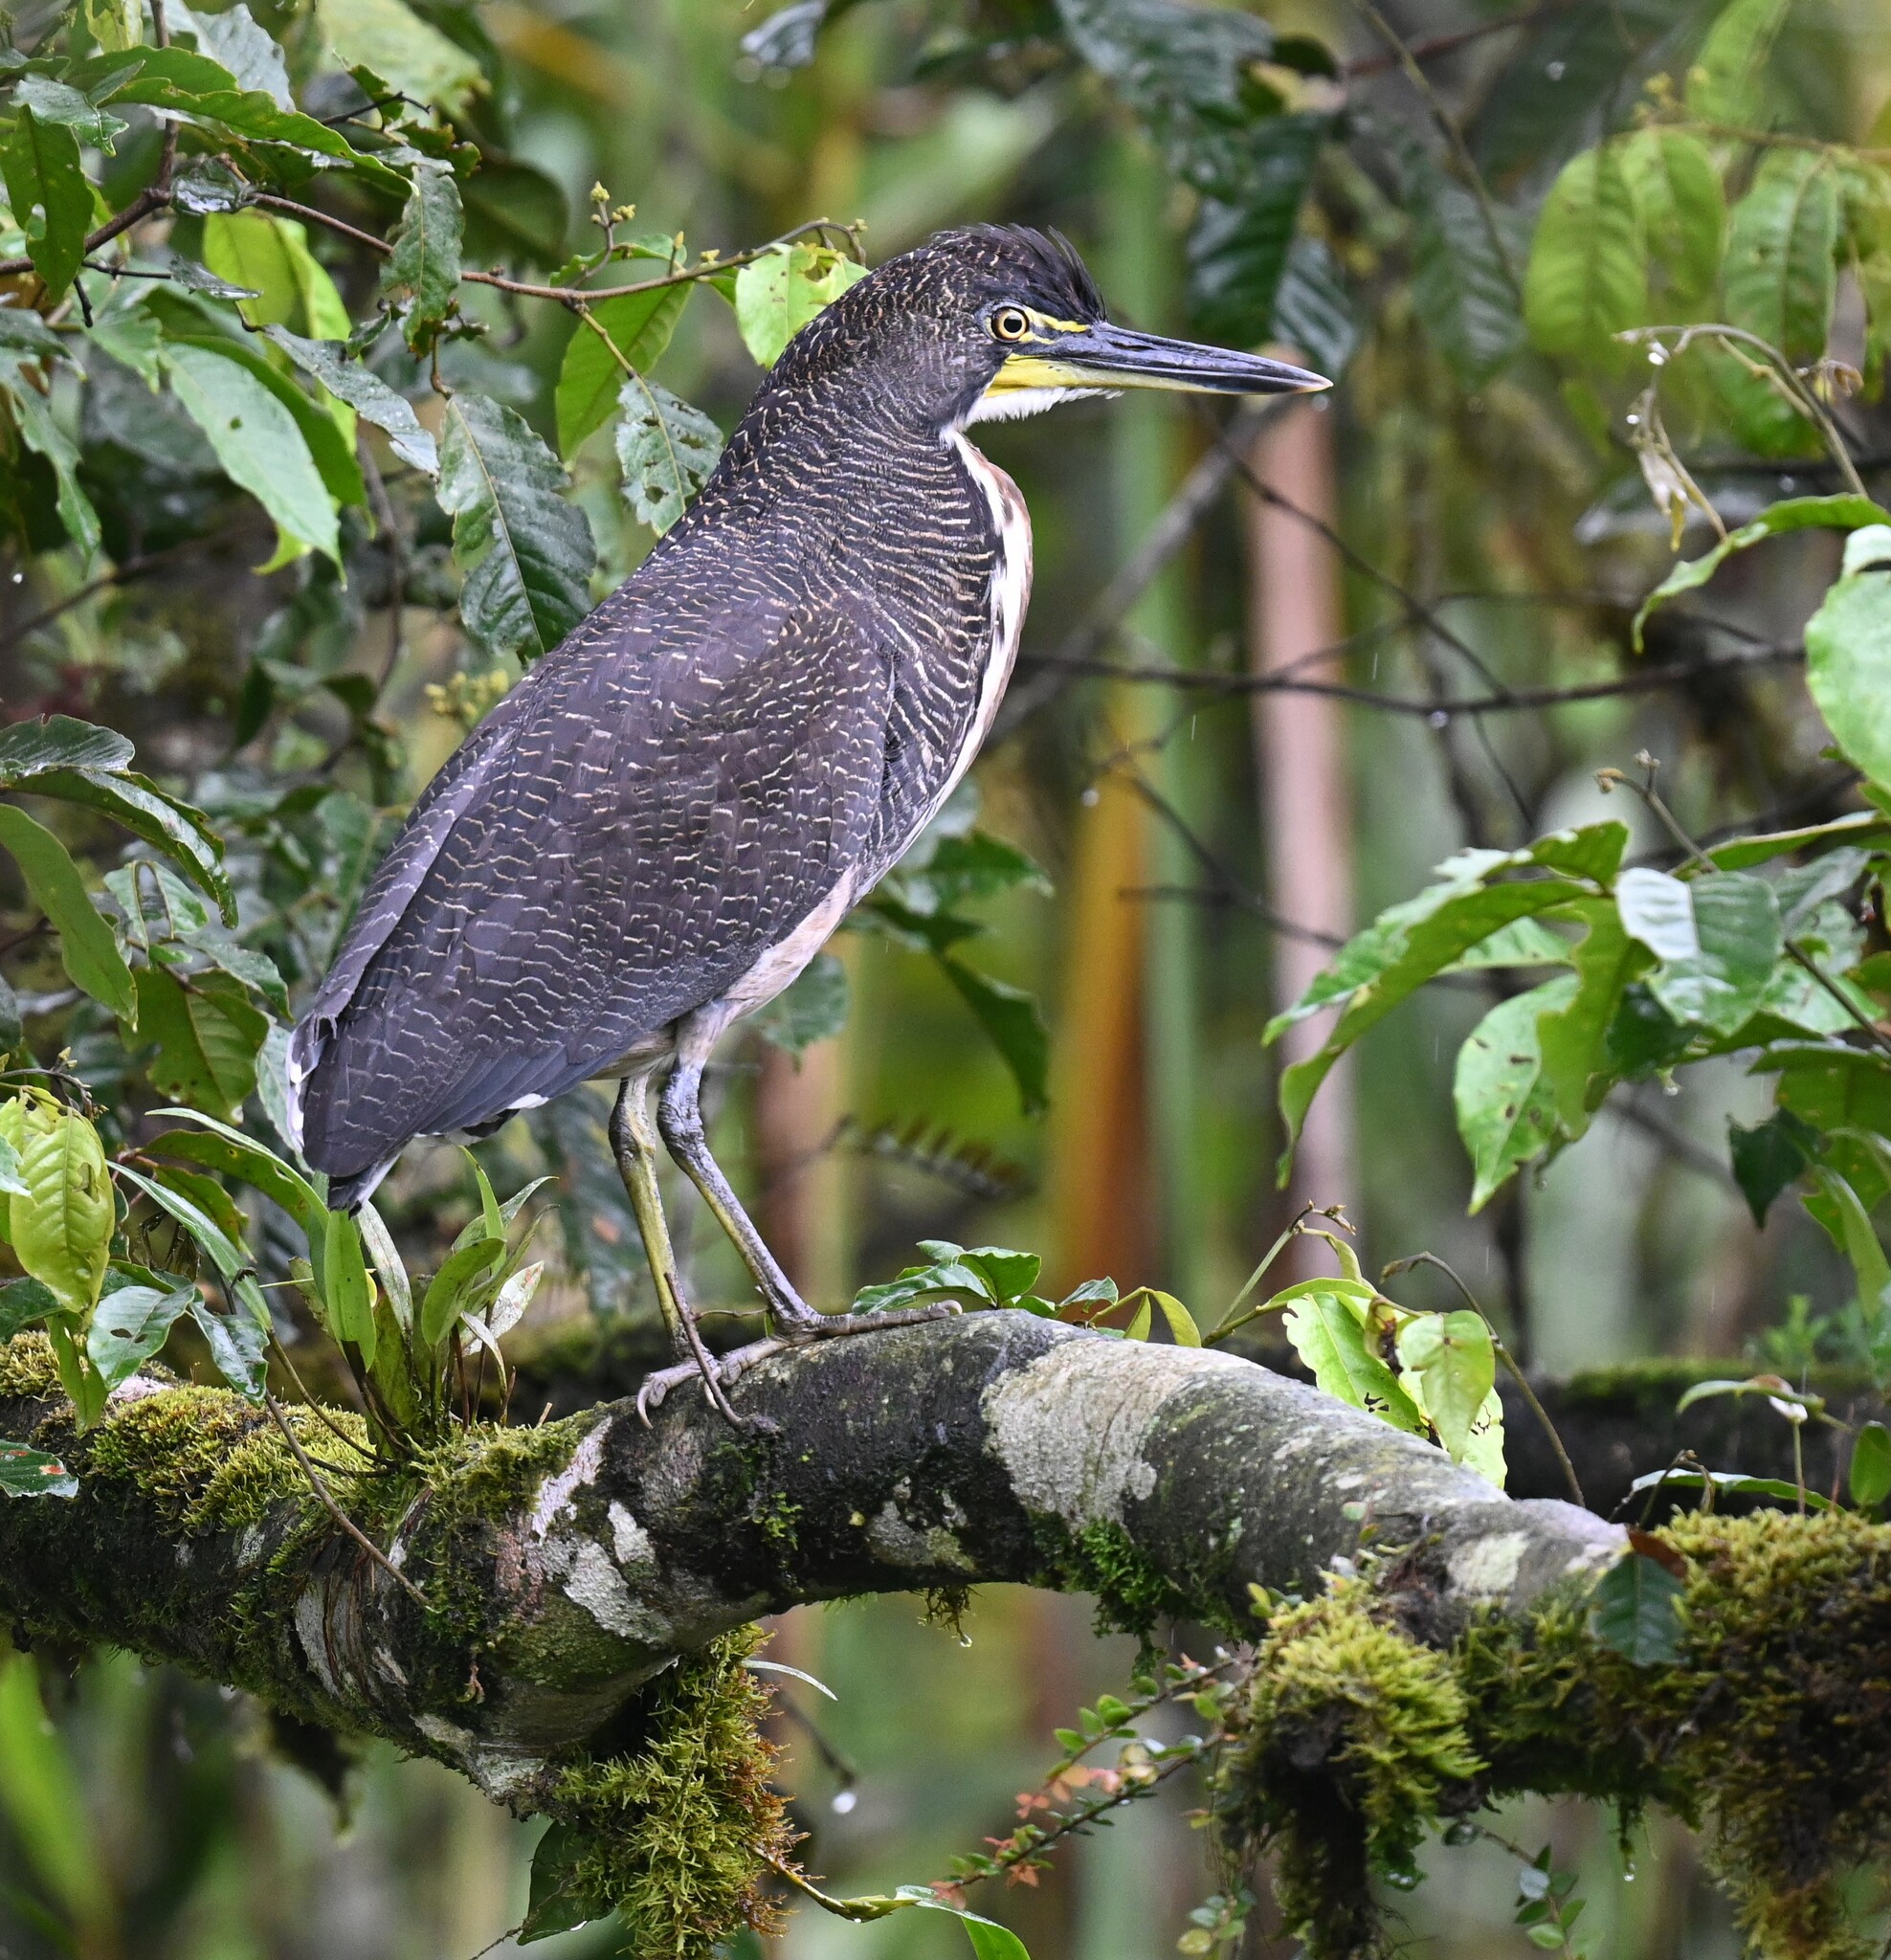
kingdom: Animalia
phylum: Chordata
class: Aves
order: Pelecaniformes
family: Ardeidae
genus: Tigrisoma
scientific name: Tigrisoma fasciatum
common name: Fasciated tiger-heron
